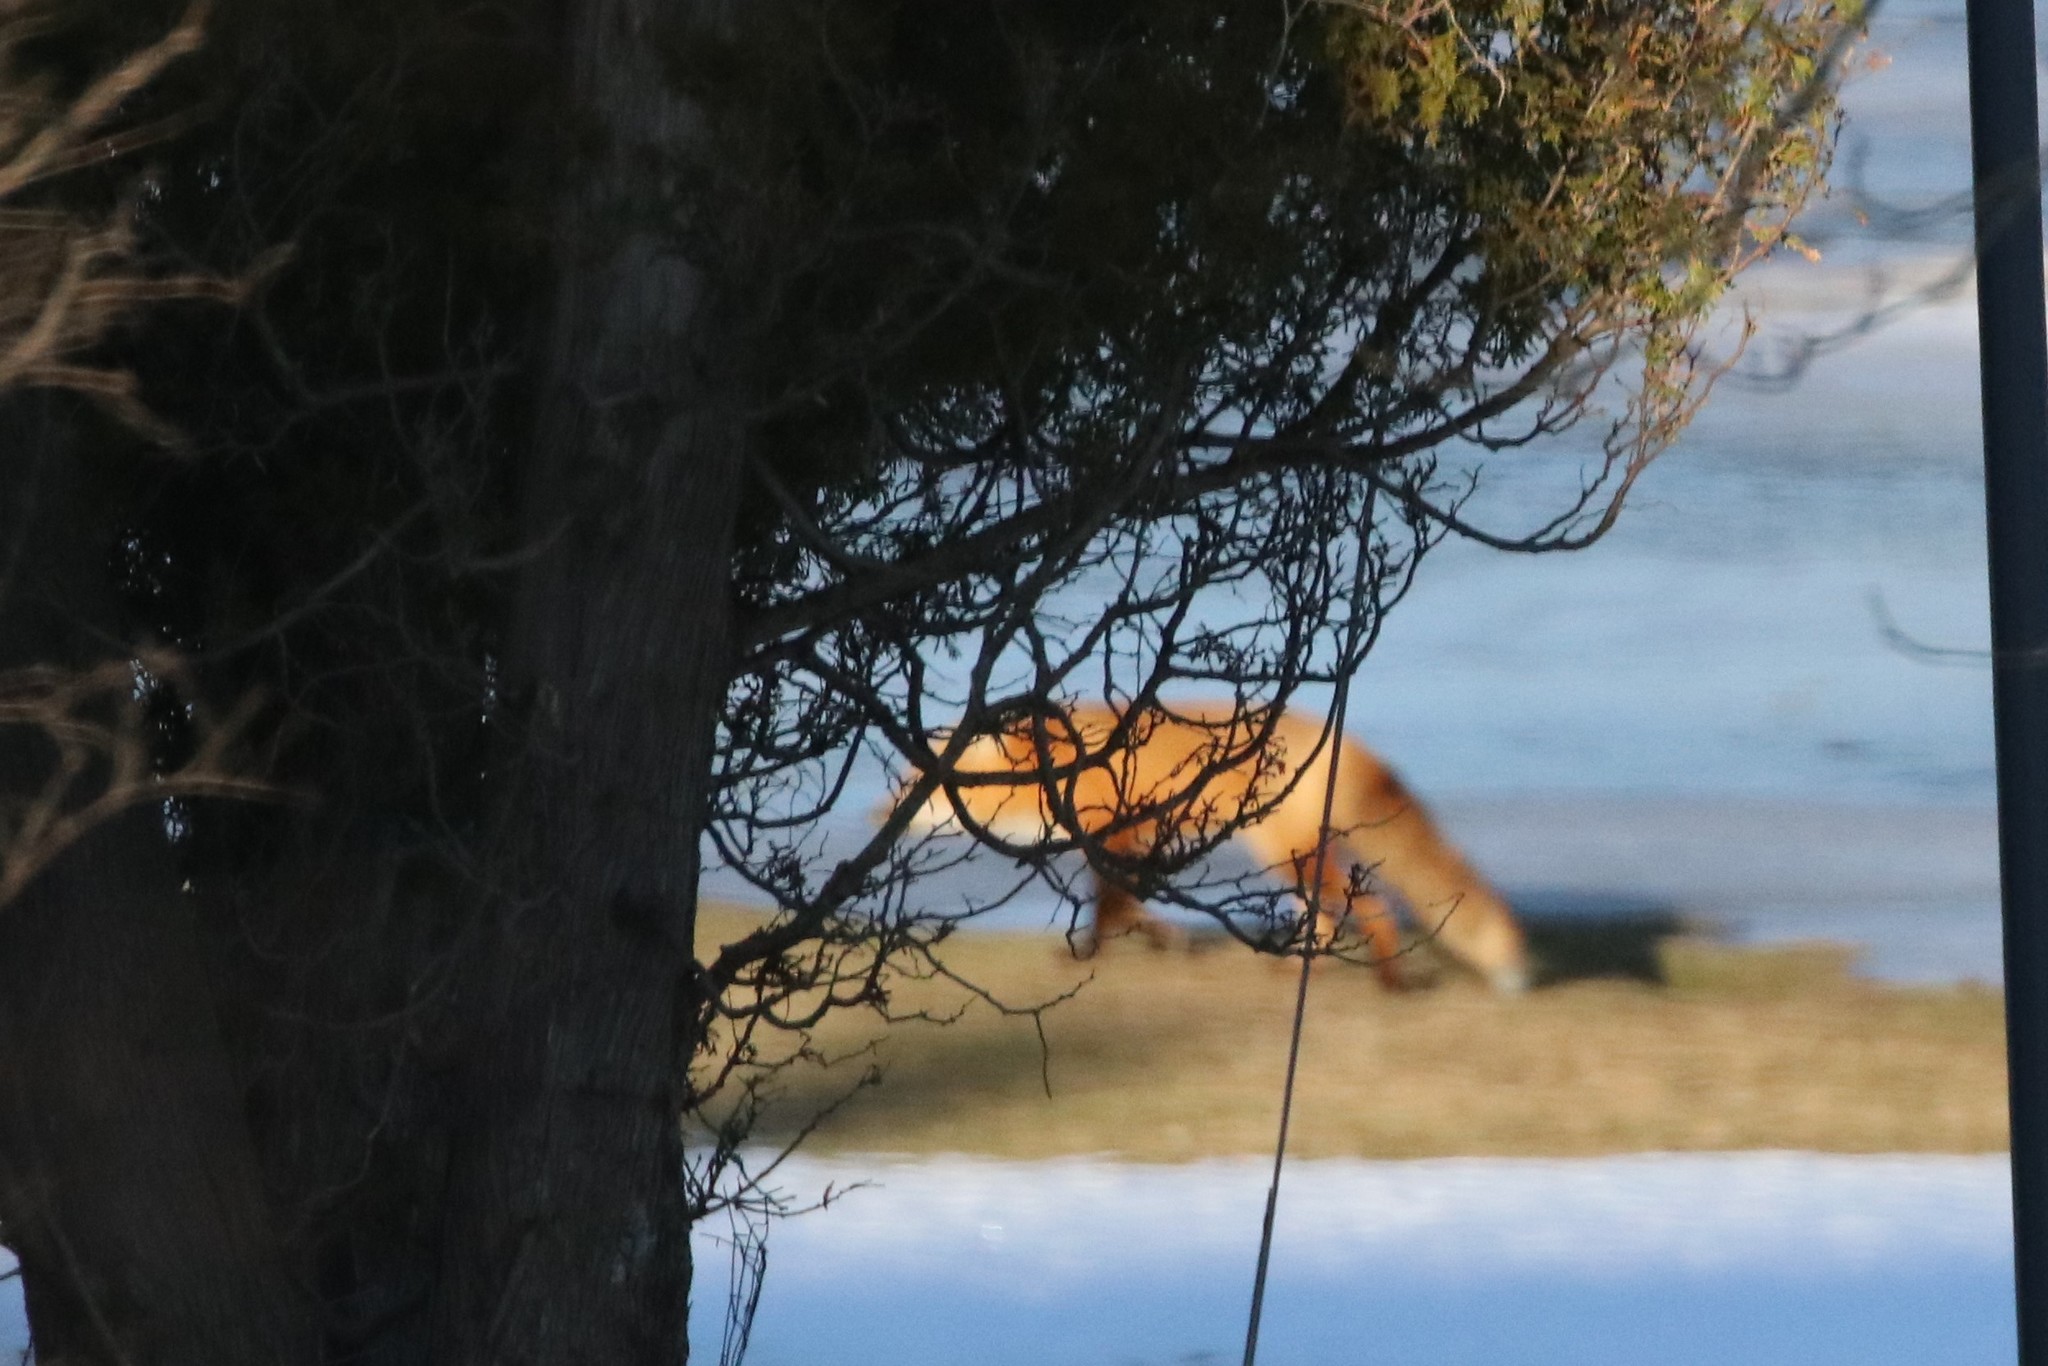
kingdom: Animalia
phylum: Chordata
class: Mammalia
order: Carnivora
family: Canidae
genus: Vulpes
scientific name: Vulpes vulpes
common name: Red fox
